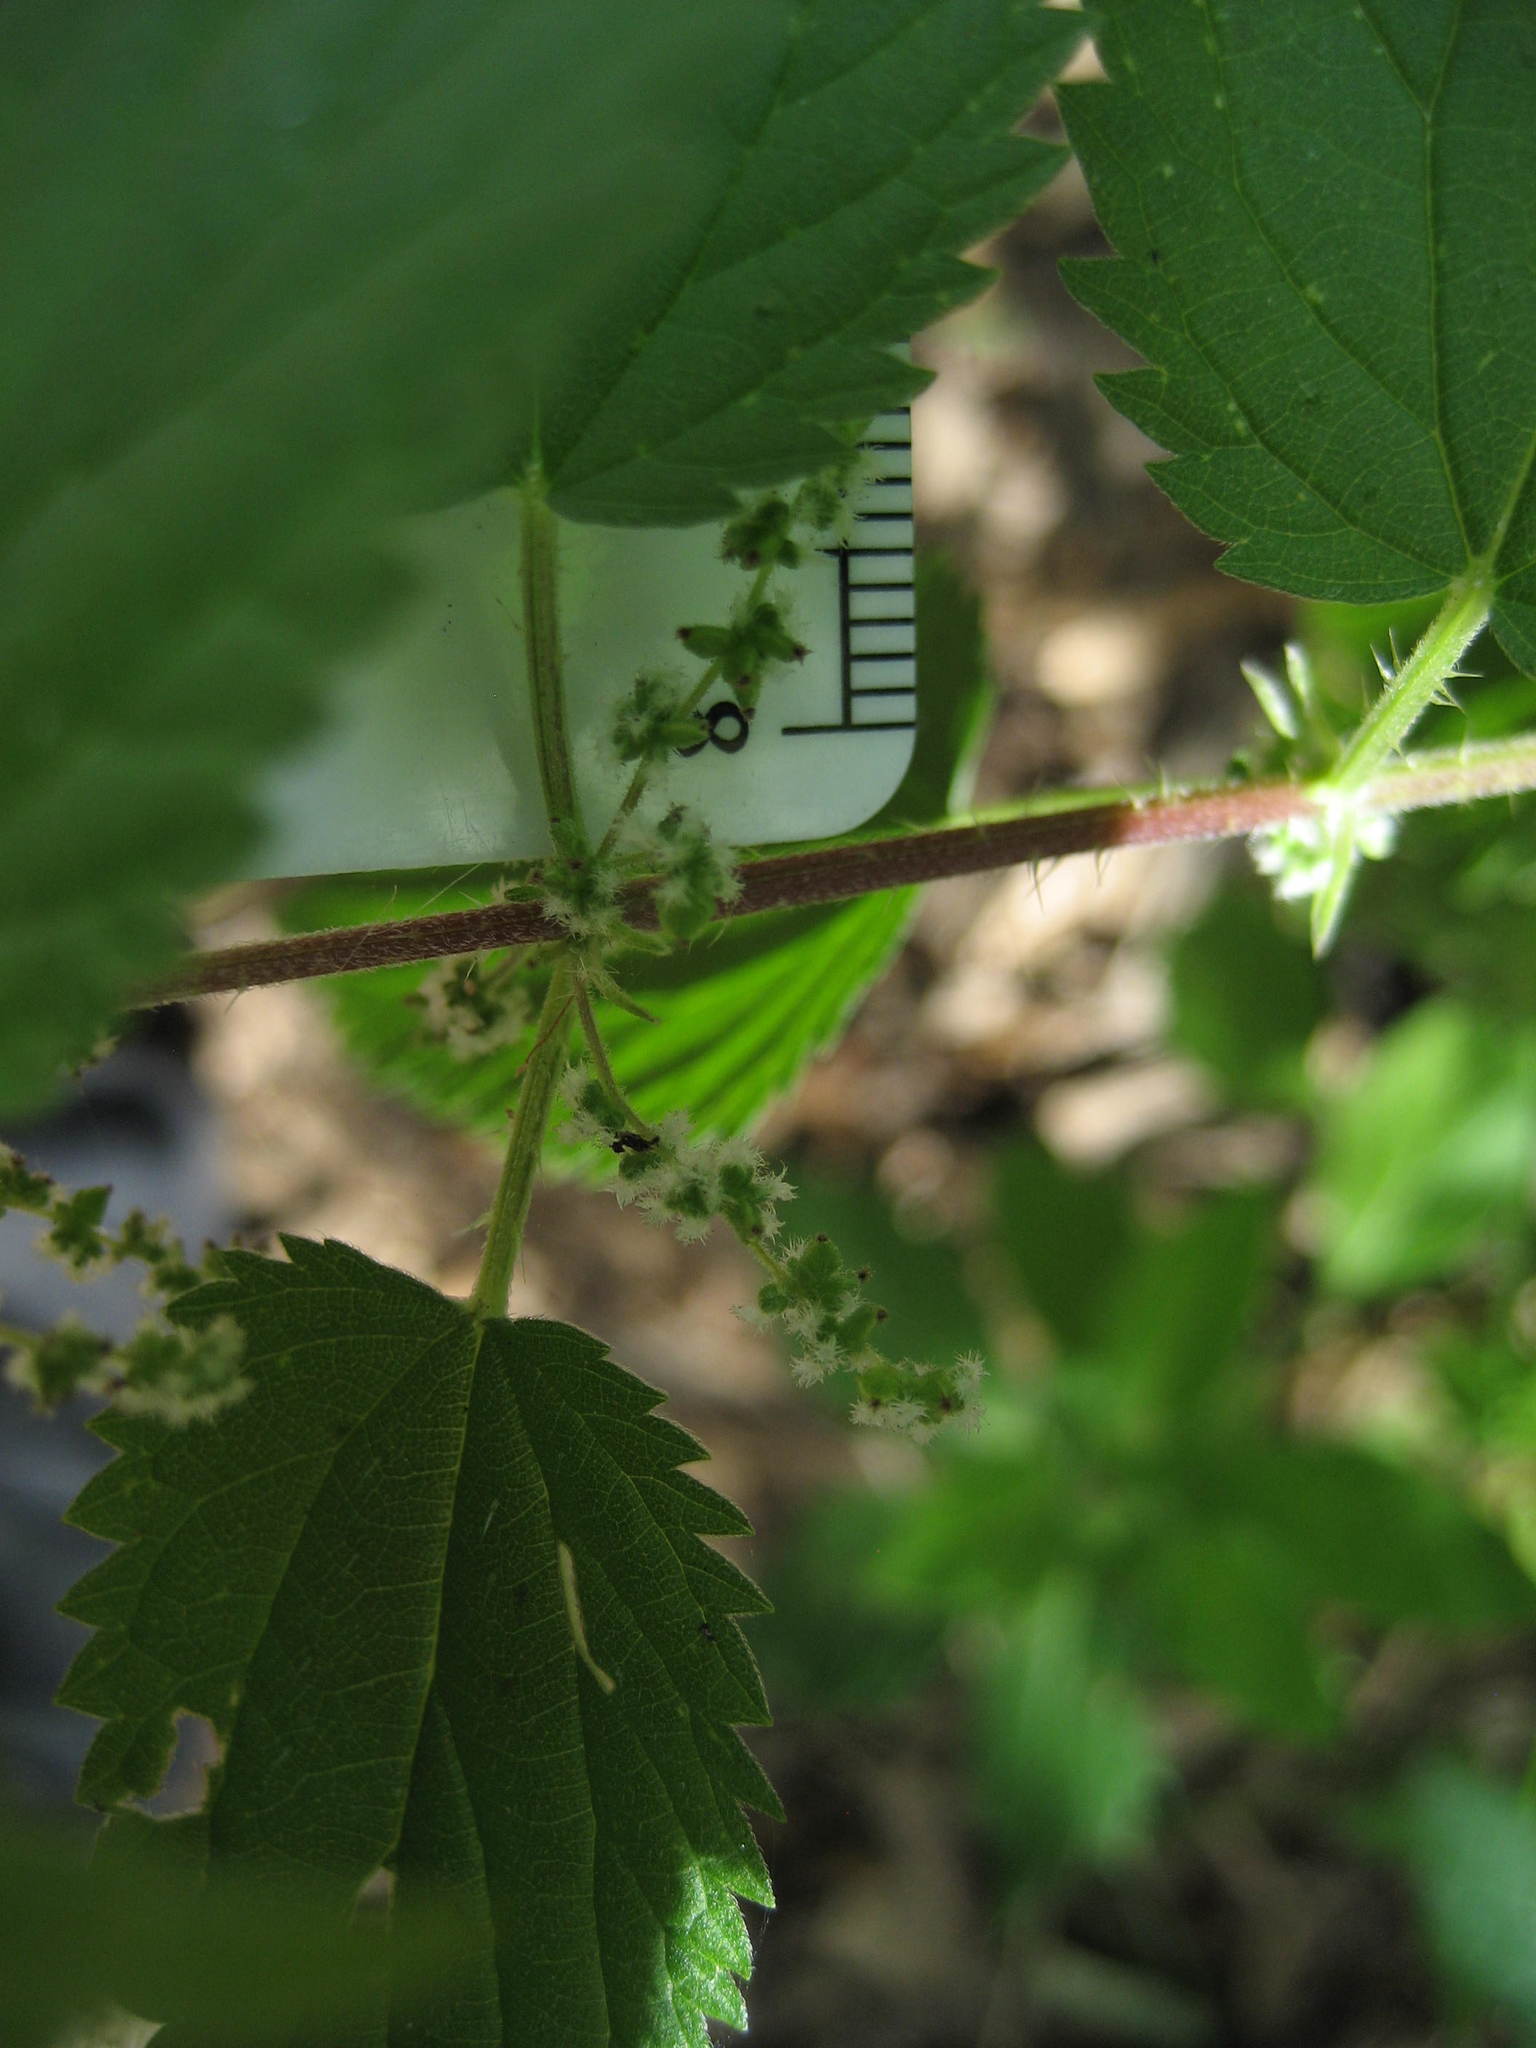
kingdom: Plantae
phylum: Tracheophyta
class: Magnoliopsida
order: Rosales
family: Urticaceae
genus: Urtica
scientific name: Urtica dioica
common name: Common nettle
